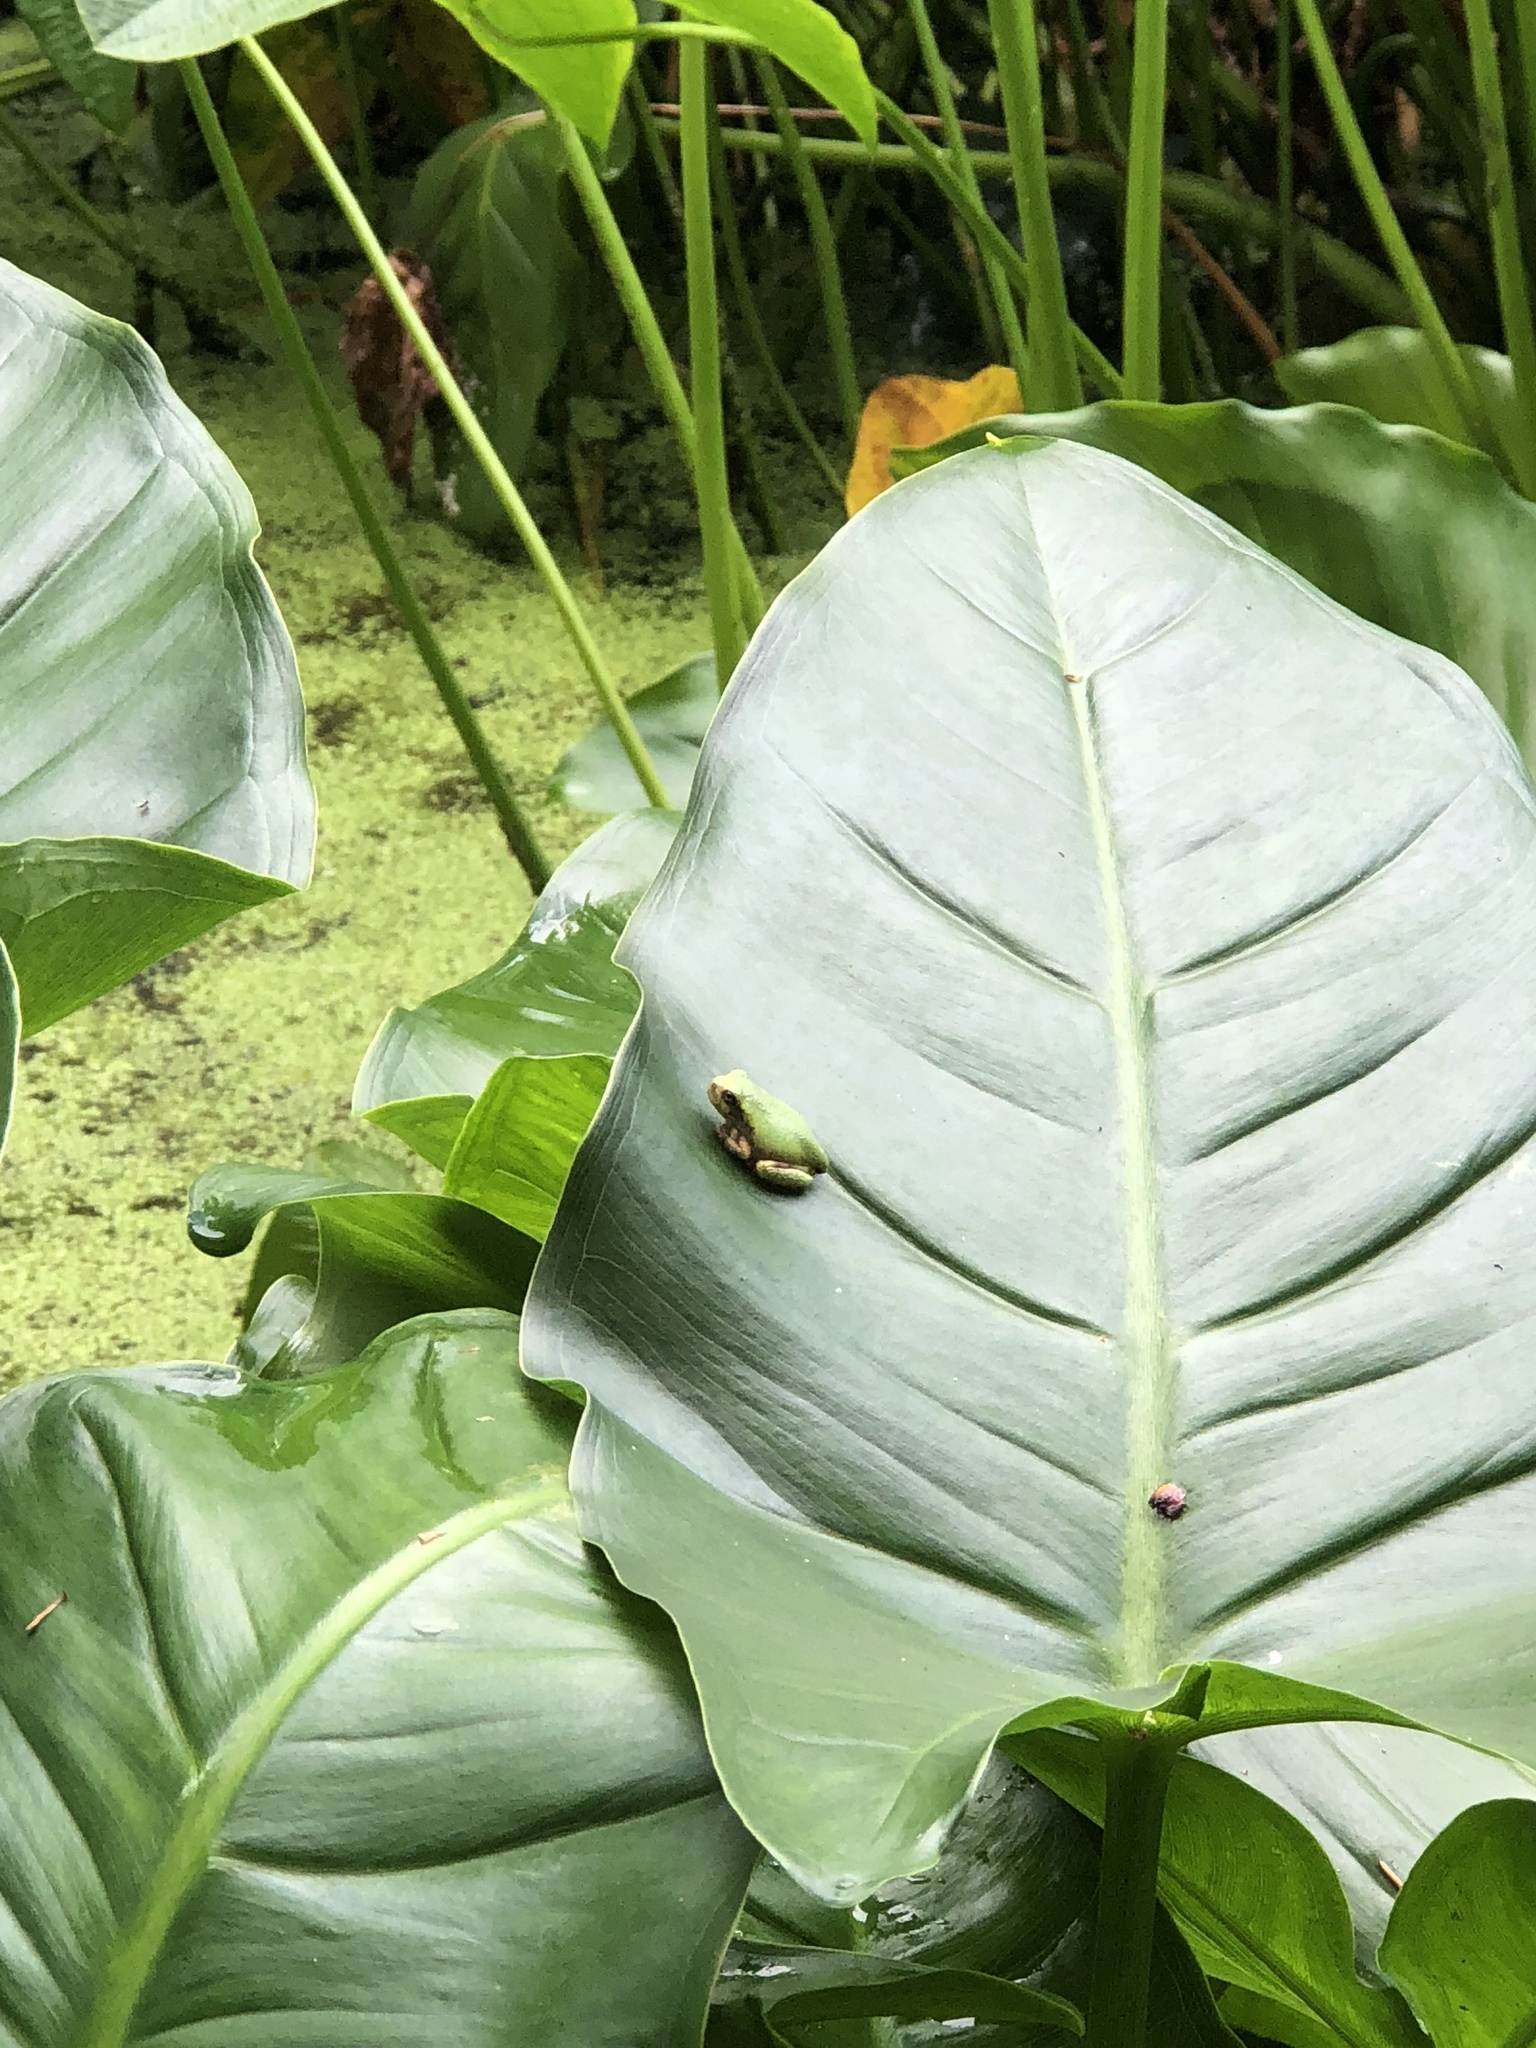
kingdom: Animalia
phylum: Chordata
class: Amphibia
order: Anura
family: Hylidae
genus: Dryophytes
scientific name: Dryophytes versicolor
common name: Gray treefrog
